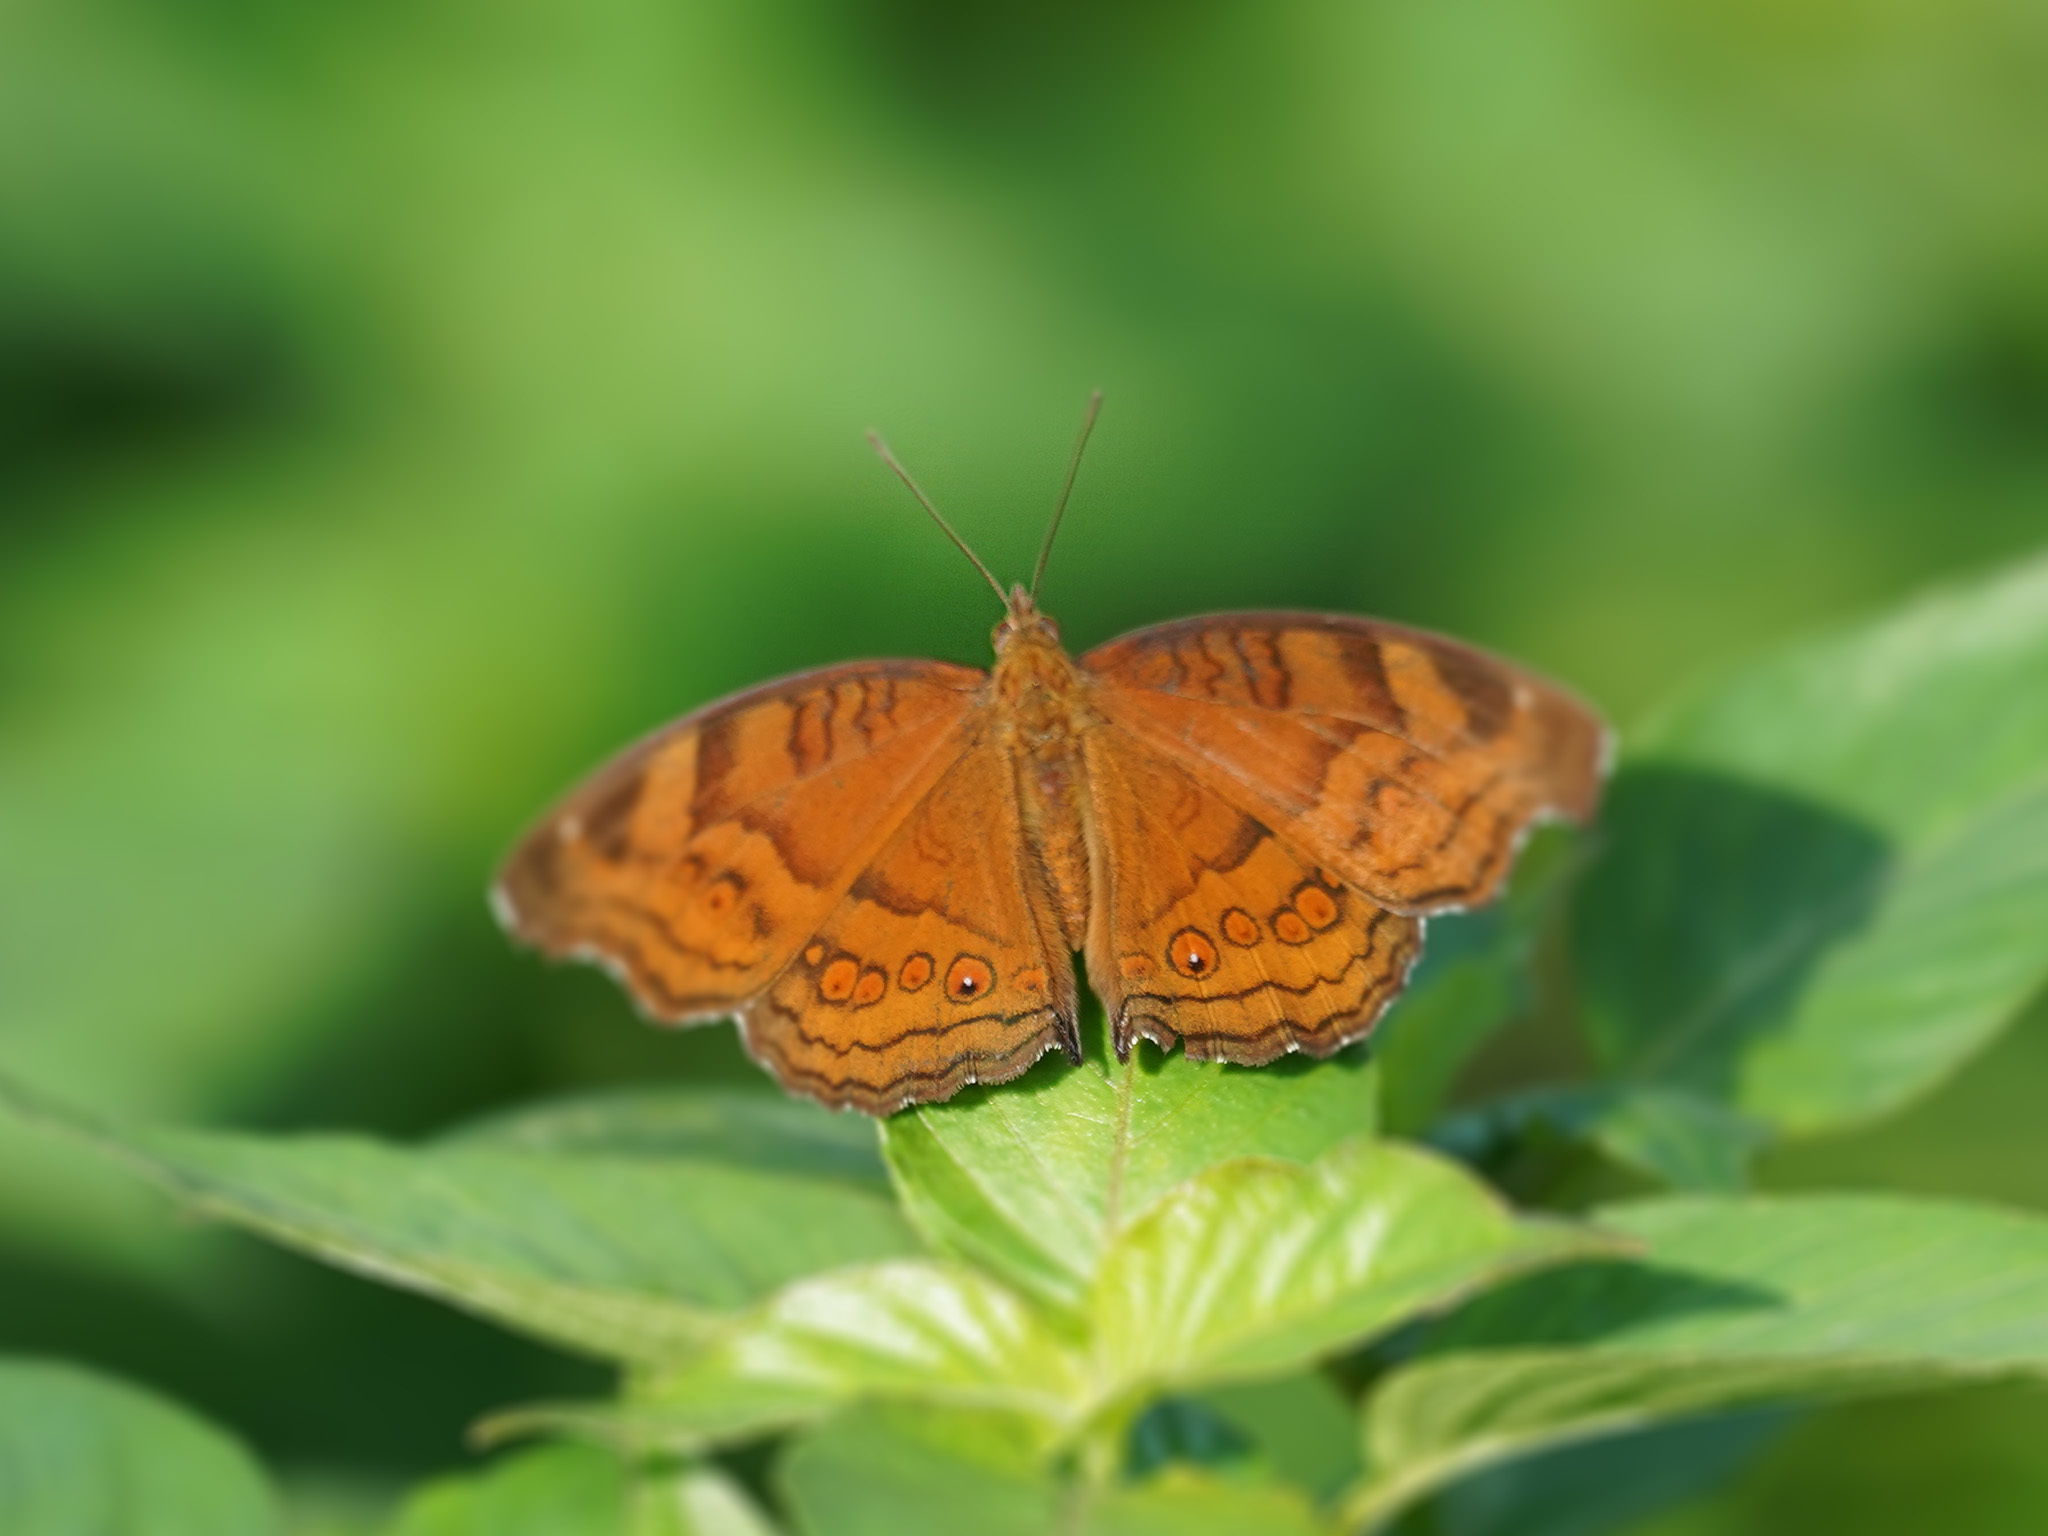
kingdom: Animalia
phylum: Arthropoda
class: Insecta
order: Lepidoptera
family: Nymphalidae
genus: Junonia
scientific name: Junonia hedonia
